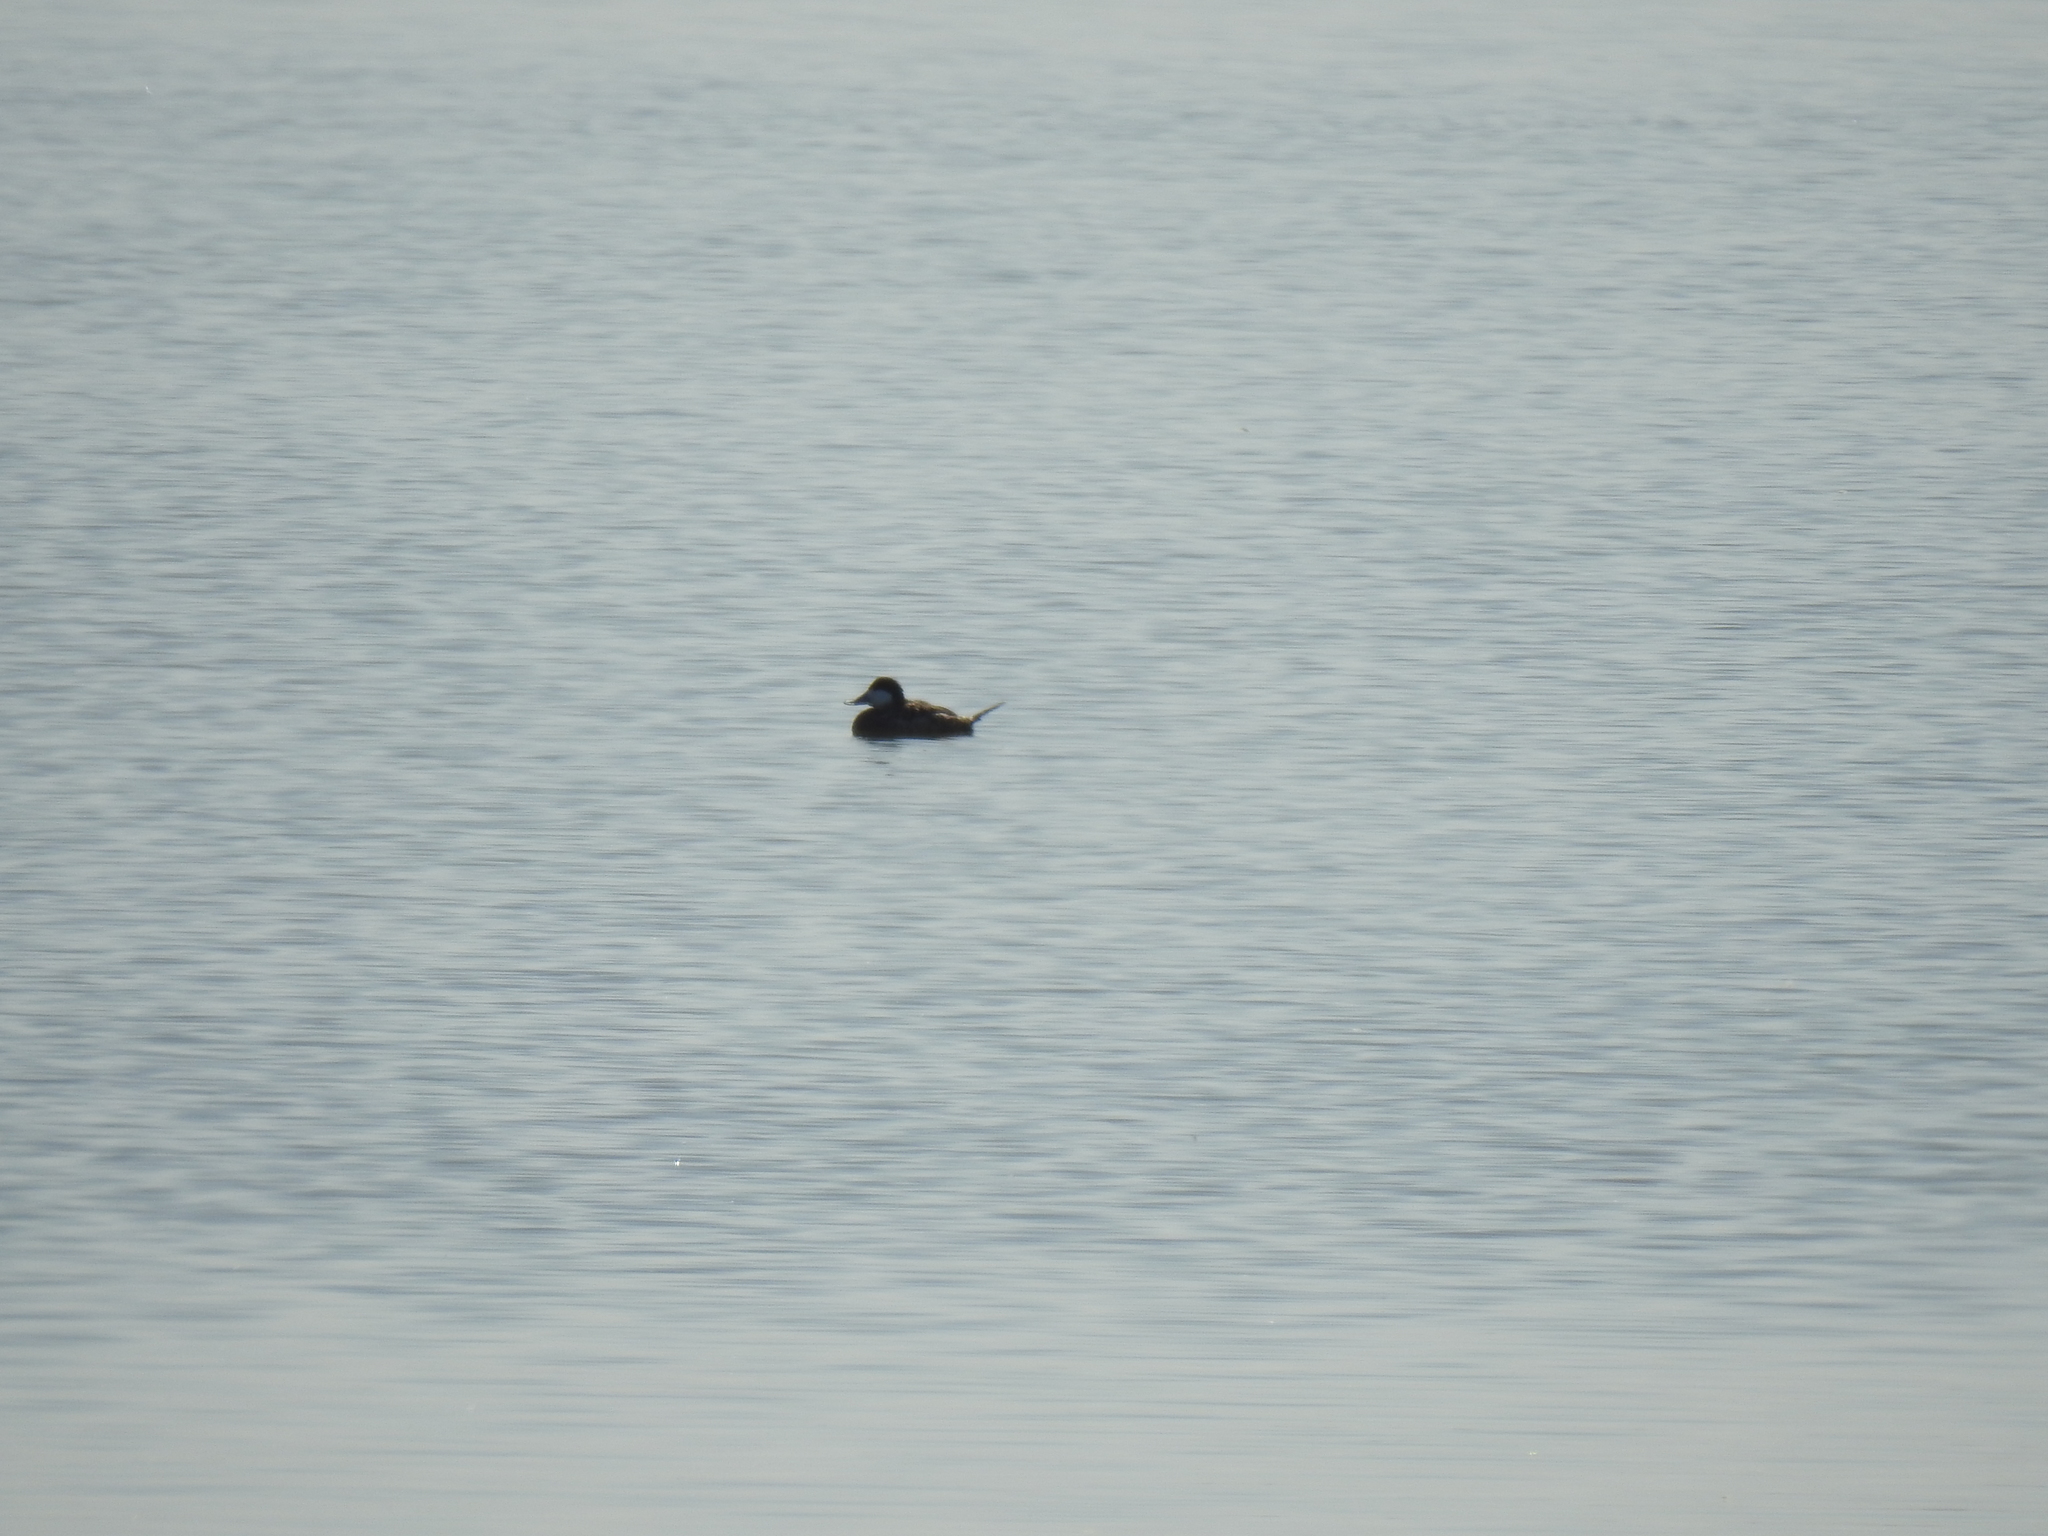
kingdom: Animalia
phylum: Chordata
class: Aves
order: Anseriformes
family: Anatidae
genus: Oxyura
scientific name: Oxyura jamaicensis
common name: Ruddy duck
